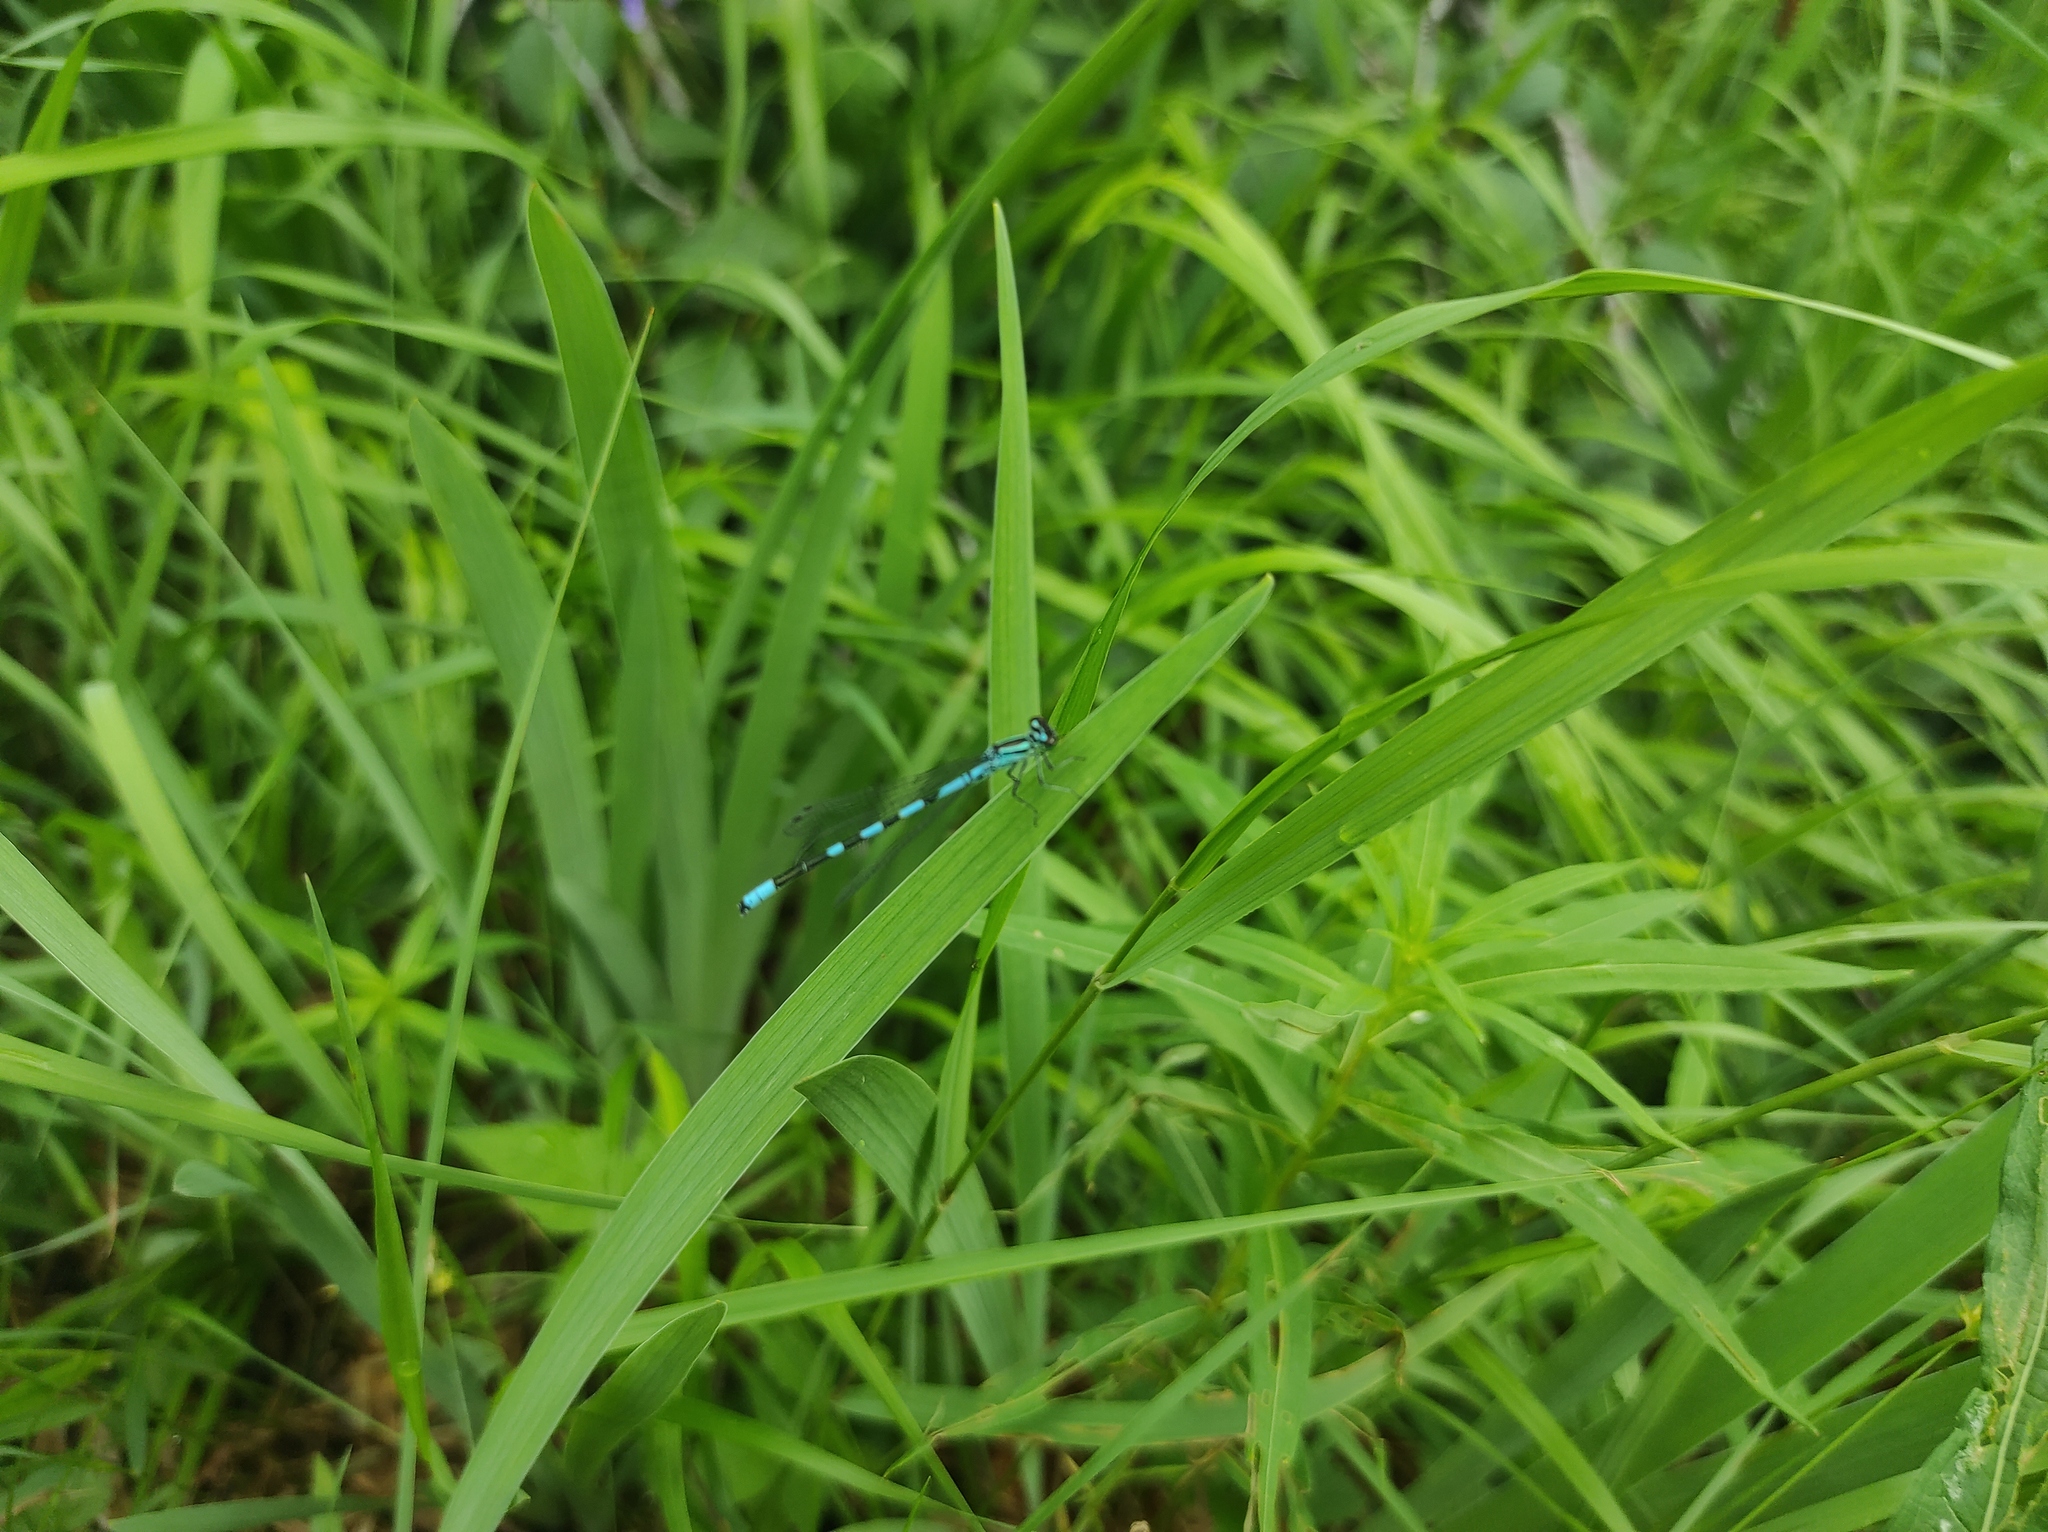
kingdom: Animalia
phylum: Arthropoda
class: Insecta
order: Odonata
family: Coenagrionidae
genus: Coenagrion
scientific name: Coenagrion hastulatum
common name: Spearhead bluet
